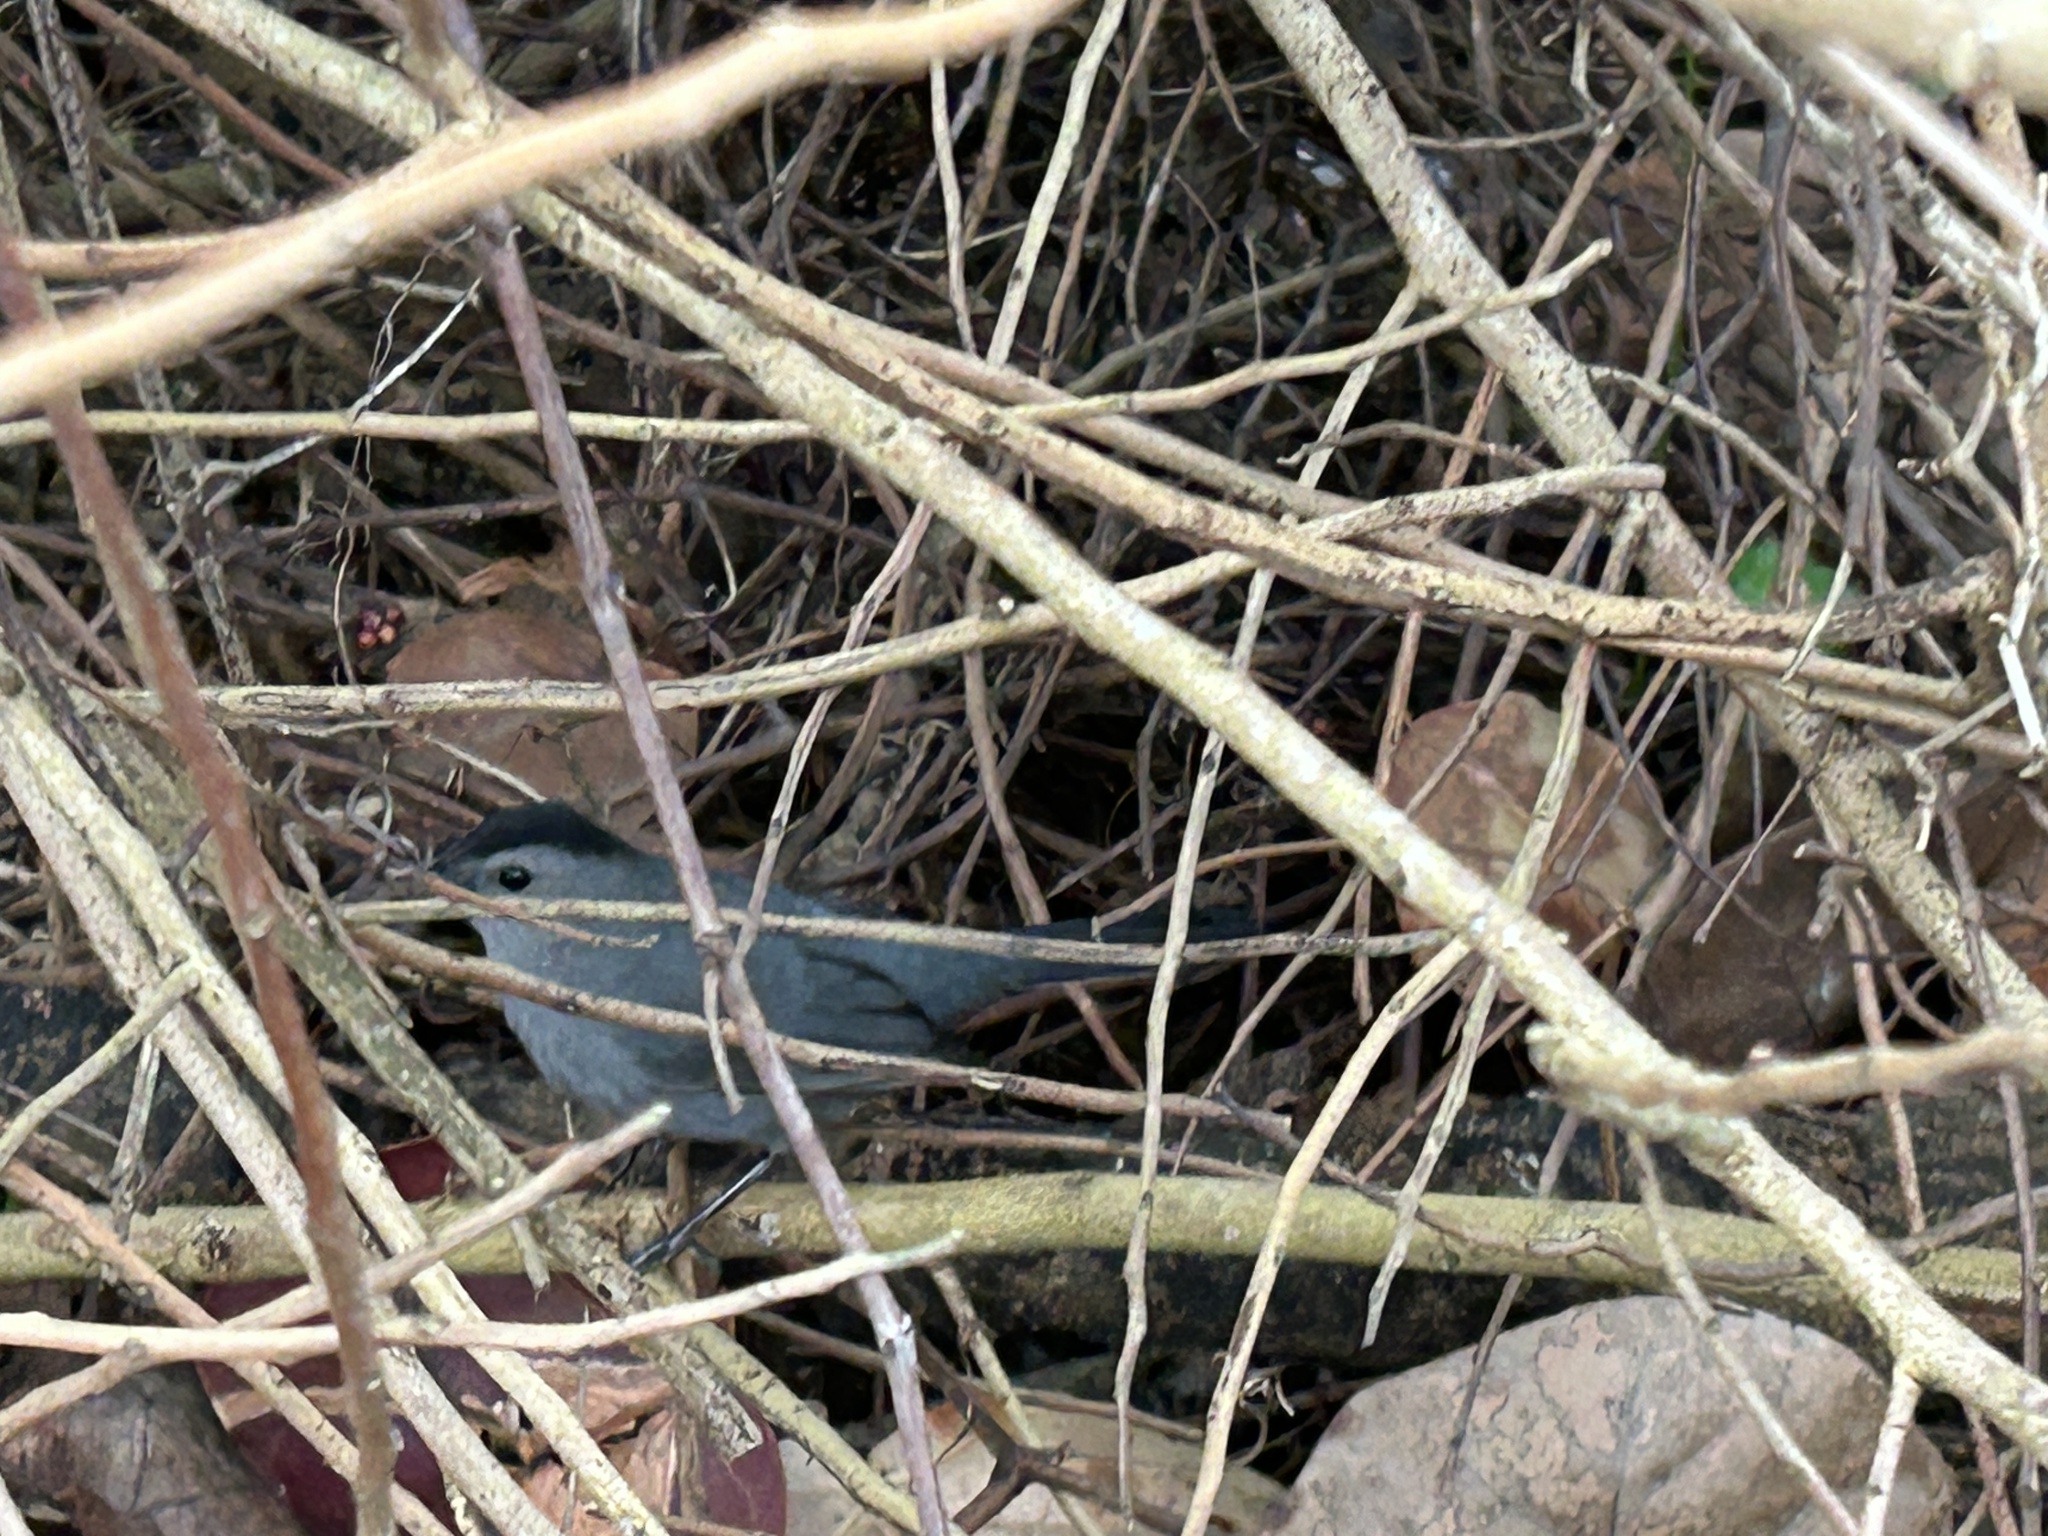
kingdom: Animalia
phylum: Chordata
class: Aves
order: Passeriformes
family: Mimidae
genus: Dumetella
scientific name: Dumetella carolinensis
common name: Gray catbird
